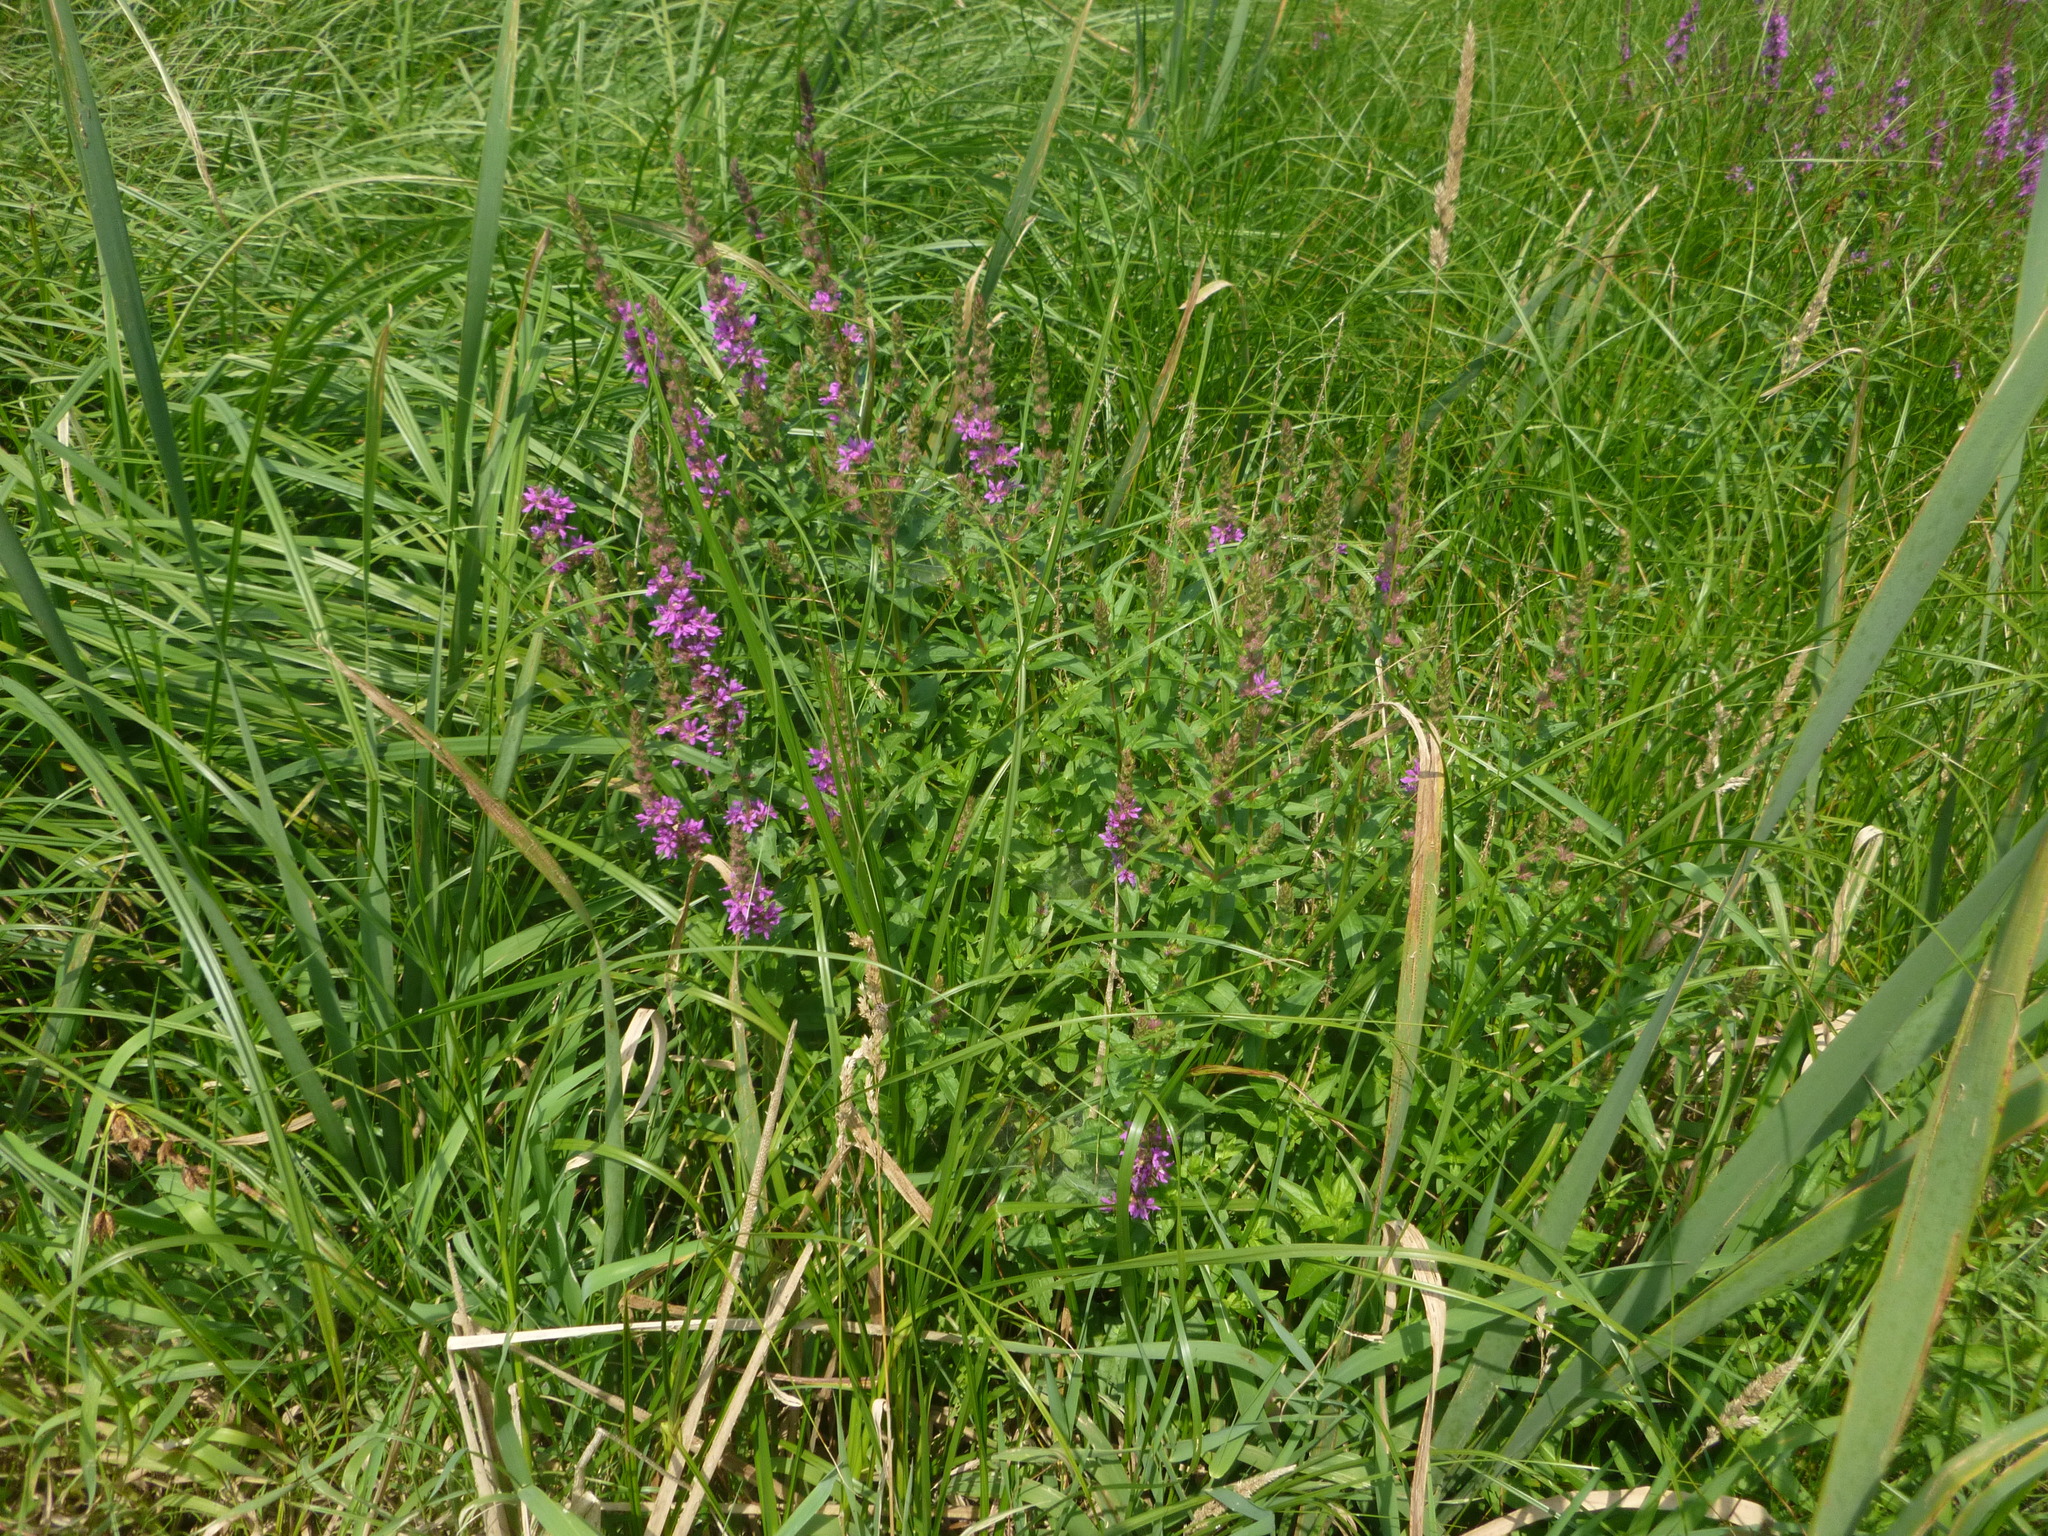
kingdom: Plantae
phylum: Tracheophyta
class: Magnoliopsida
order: Myrtales
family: Lythraceae
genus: Lythrum
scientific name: Lythrum salicaria
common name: Purple loosestrife
